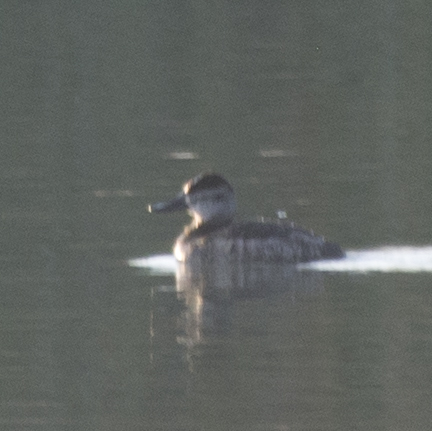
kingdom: Animalia
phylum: Chordata
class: Aves
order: Anseriformes
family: Anatidae
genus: Oxyura
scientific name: Oxyura jamaicensis
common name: Ruddy duck
